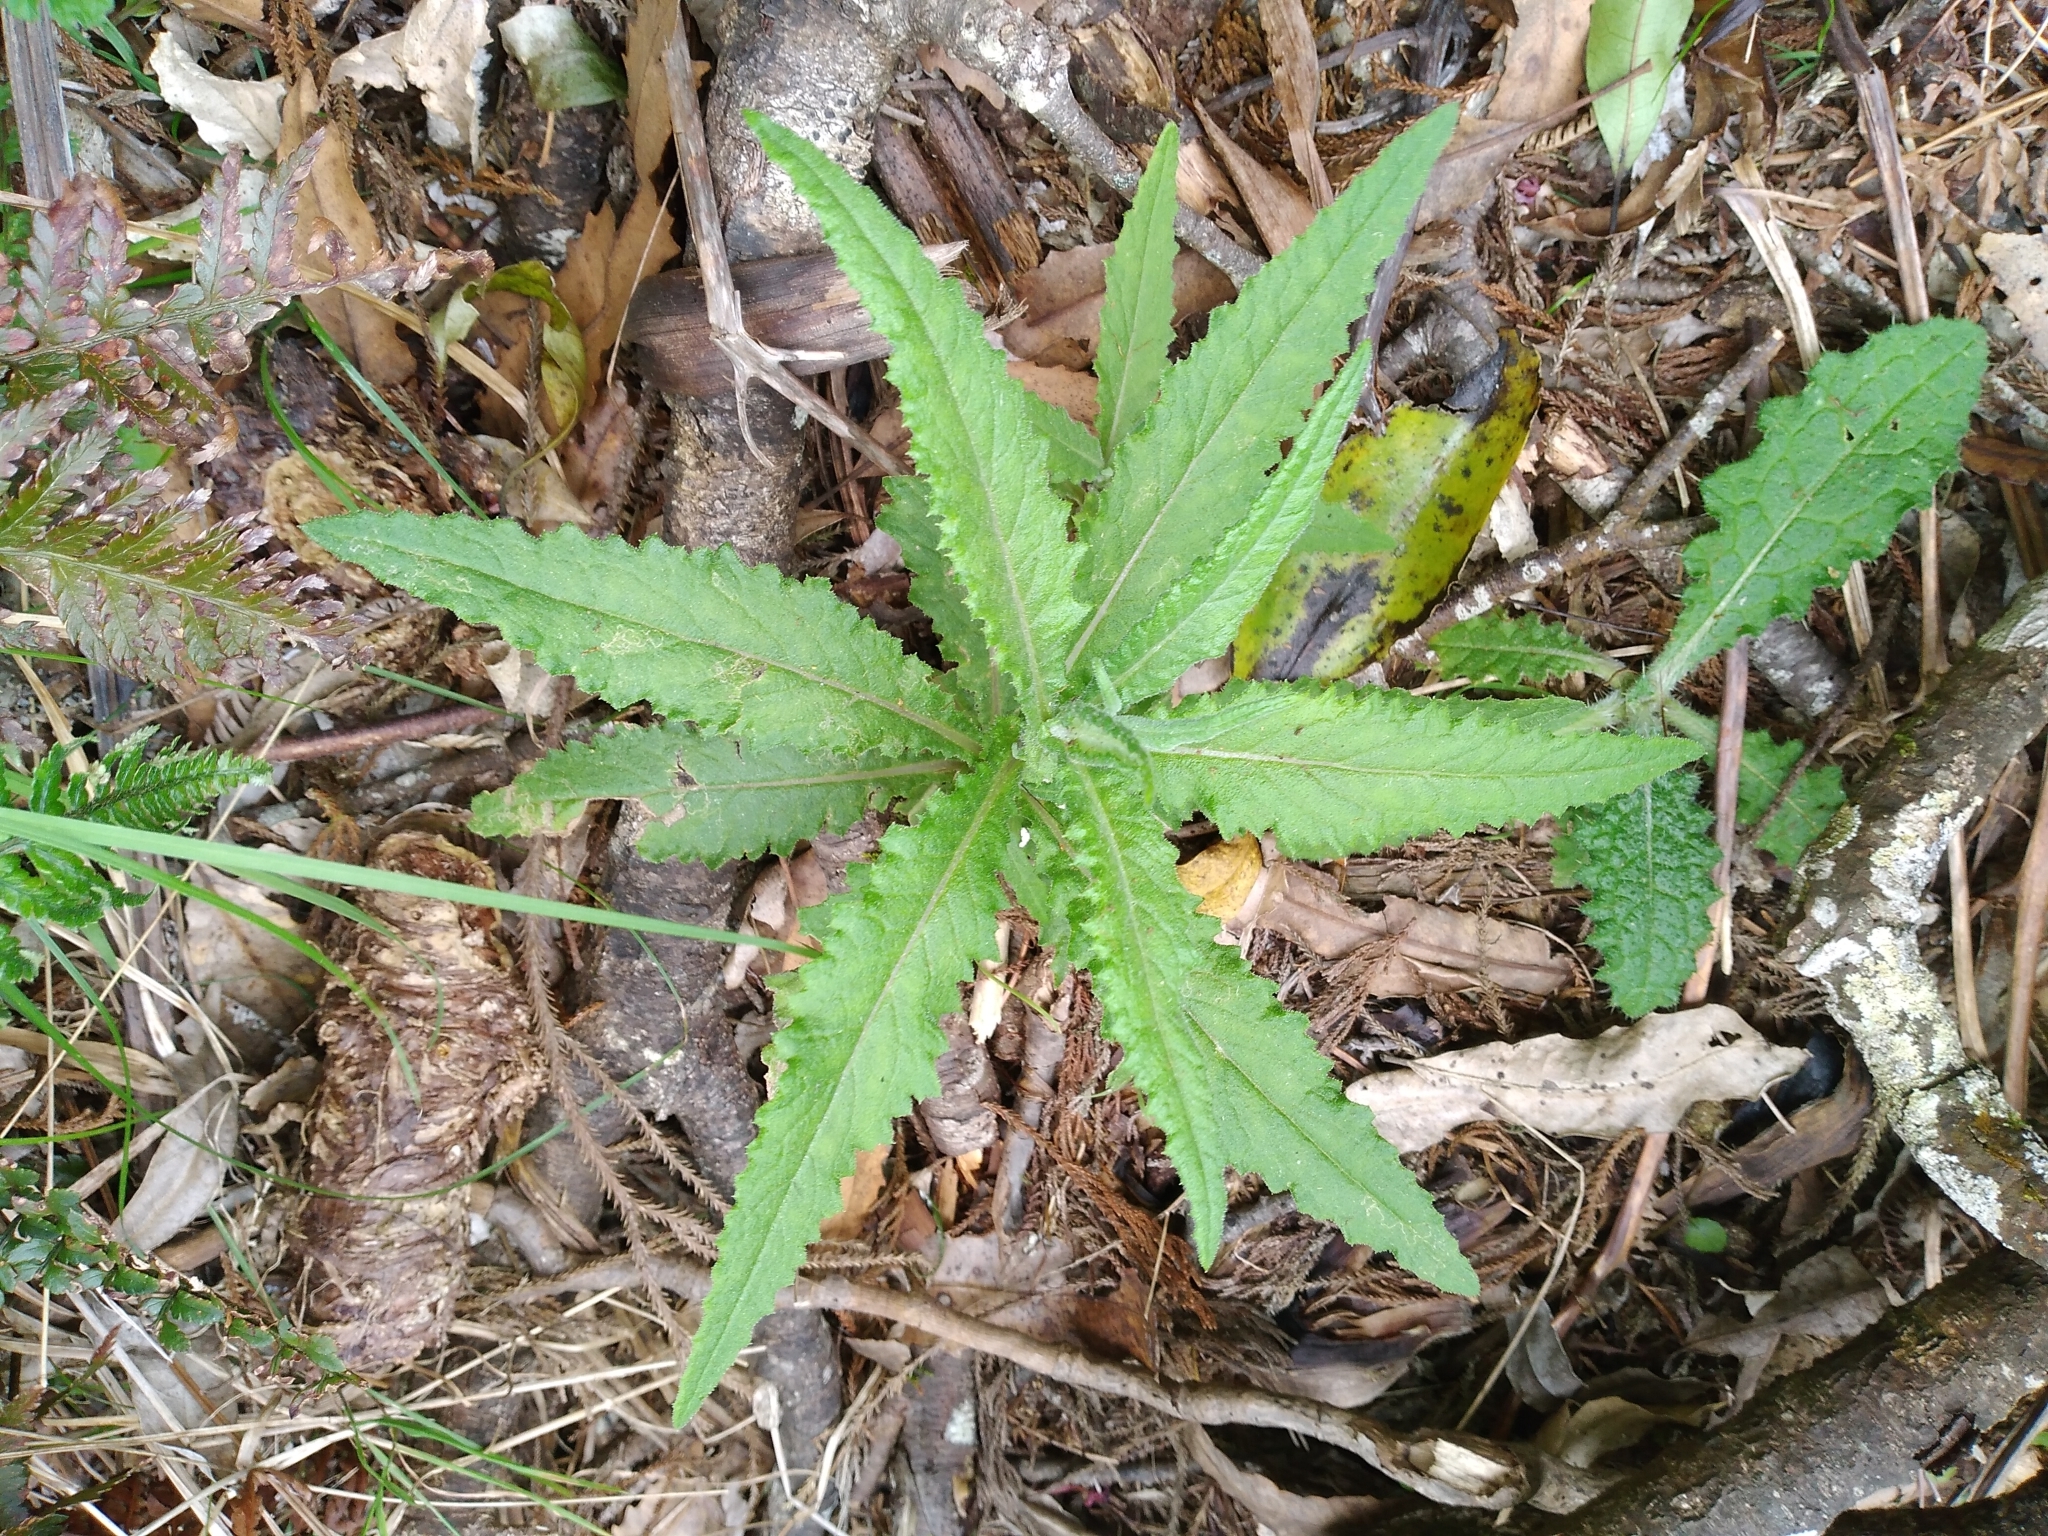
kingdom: Plantae
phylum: Tracheophyta
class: Magnoliopsida
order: Asterales
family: Asteraceae
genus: Senecio
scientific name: Senecio minimus
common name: Toothed fireweed
